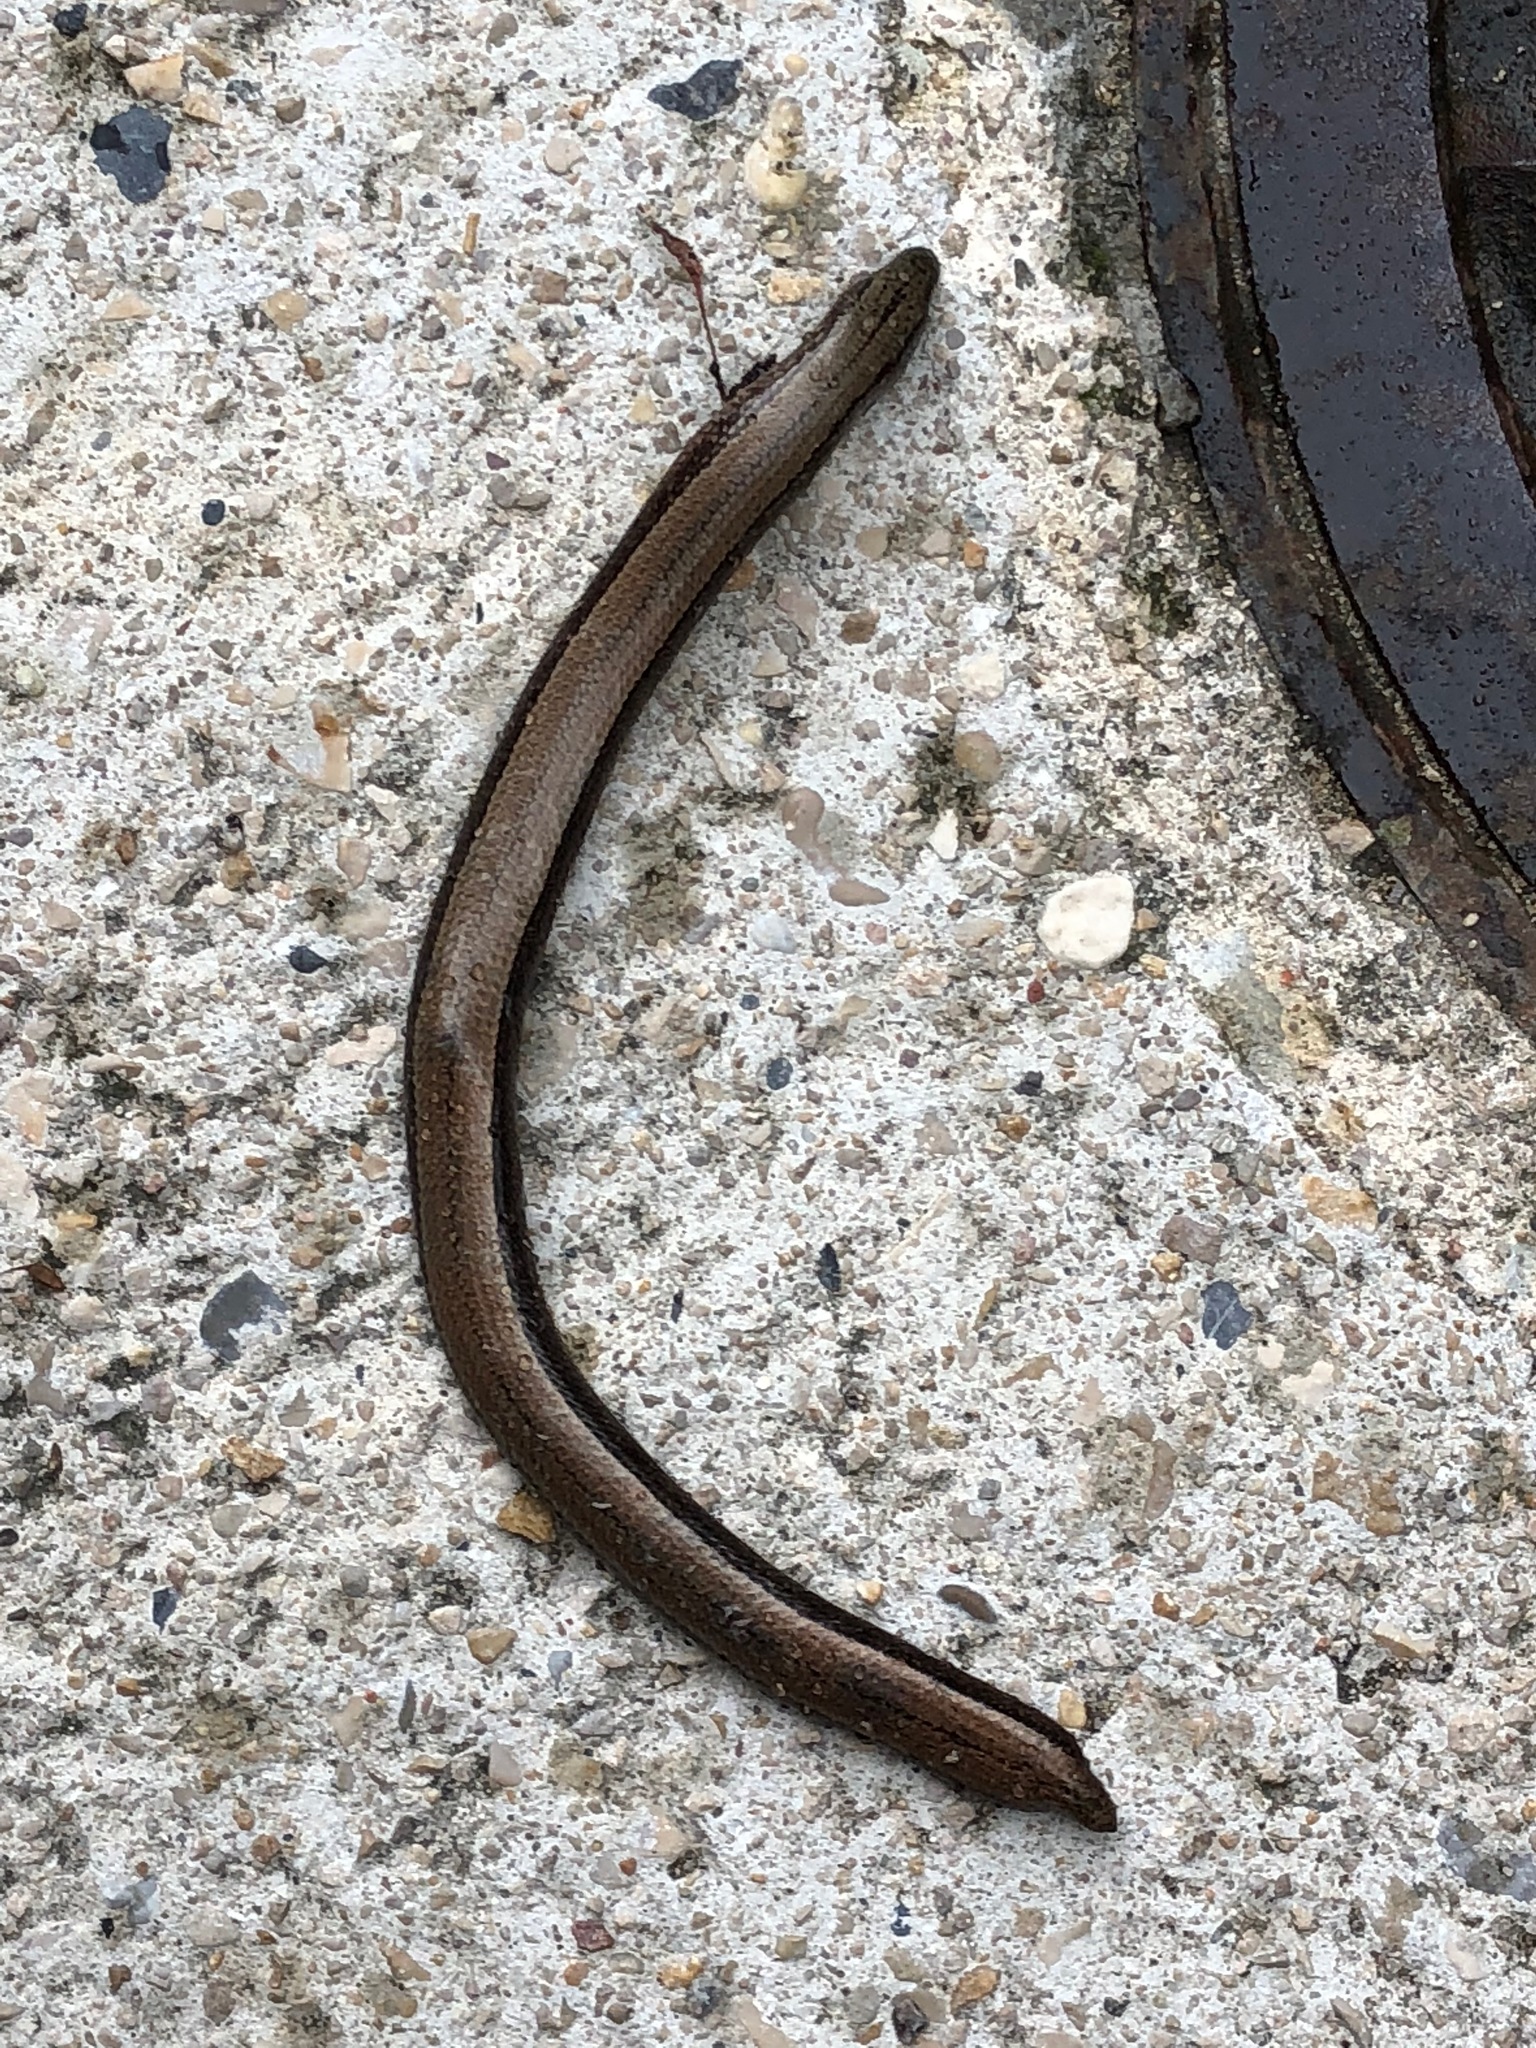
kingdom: Animalia
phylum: Chordata
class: Squamata
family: Anguidae
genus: Anguis
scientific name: Anguis fragilis
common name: Slow worm
